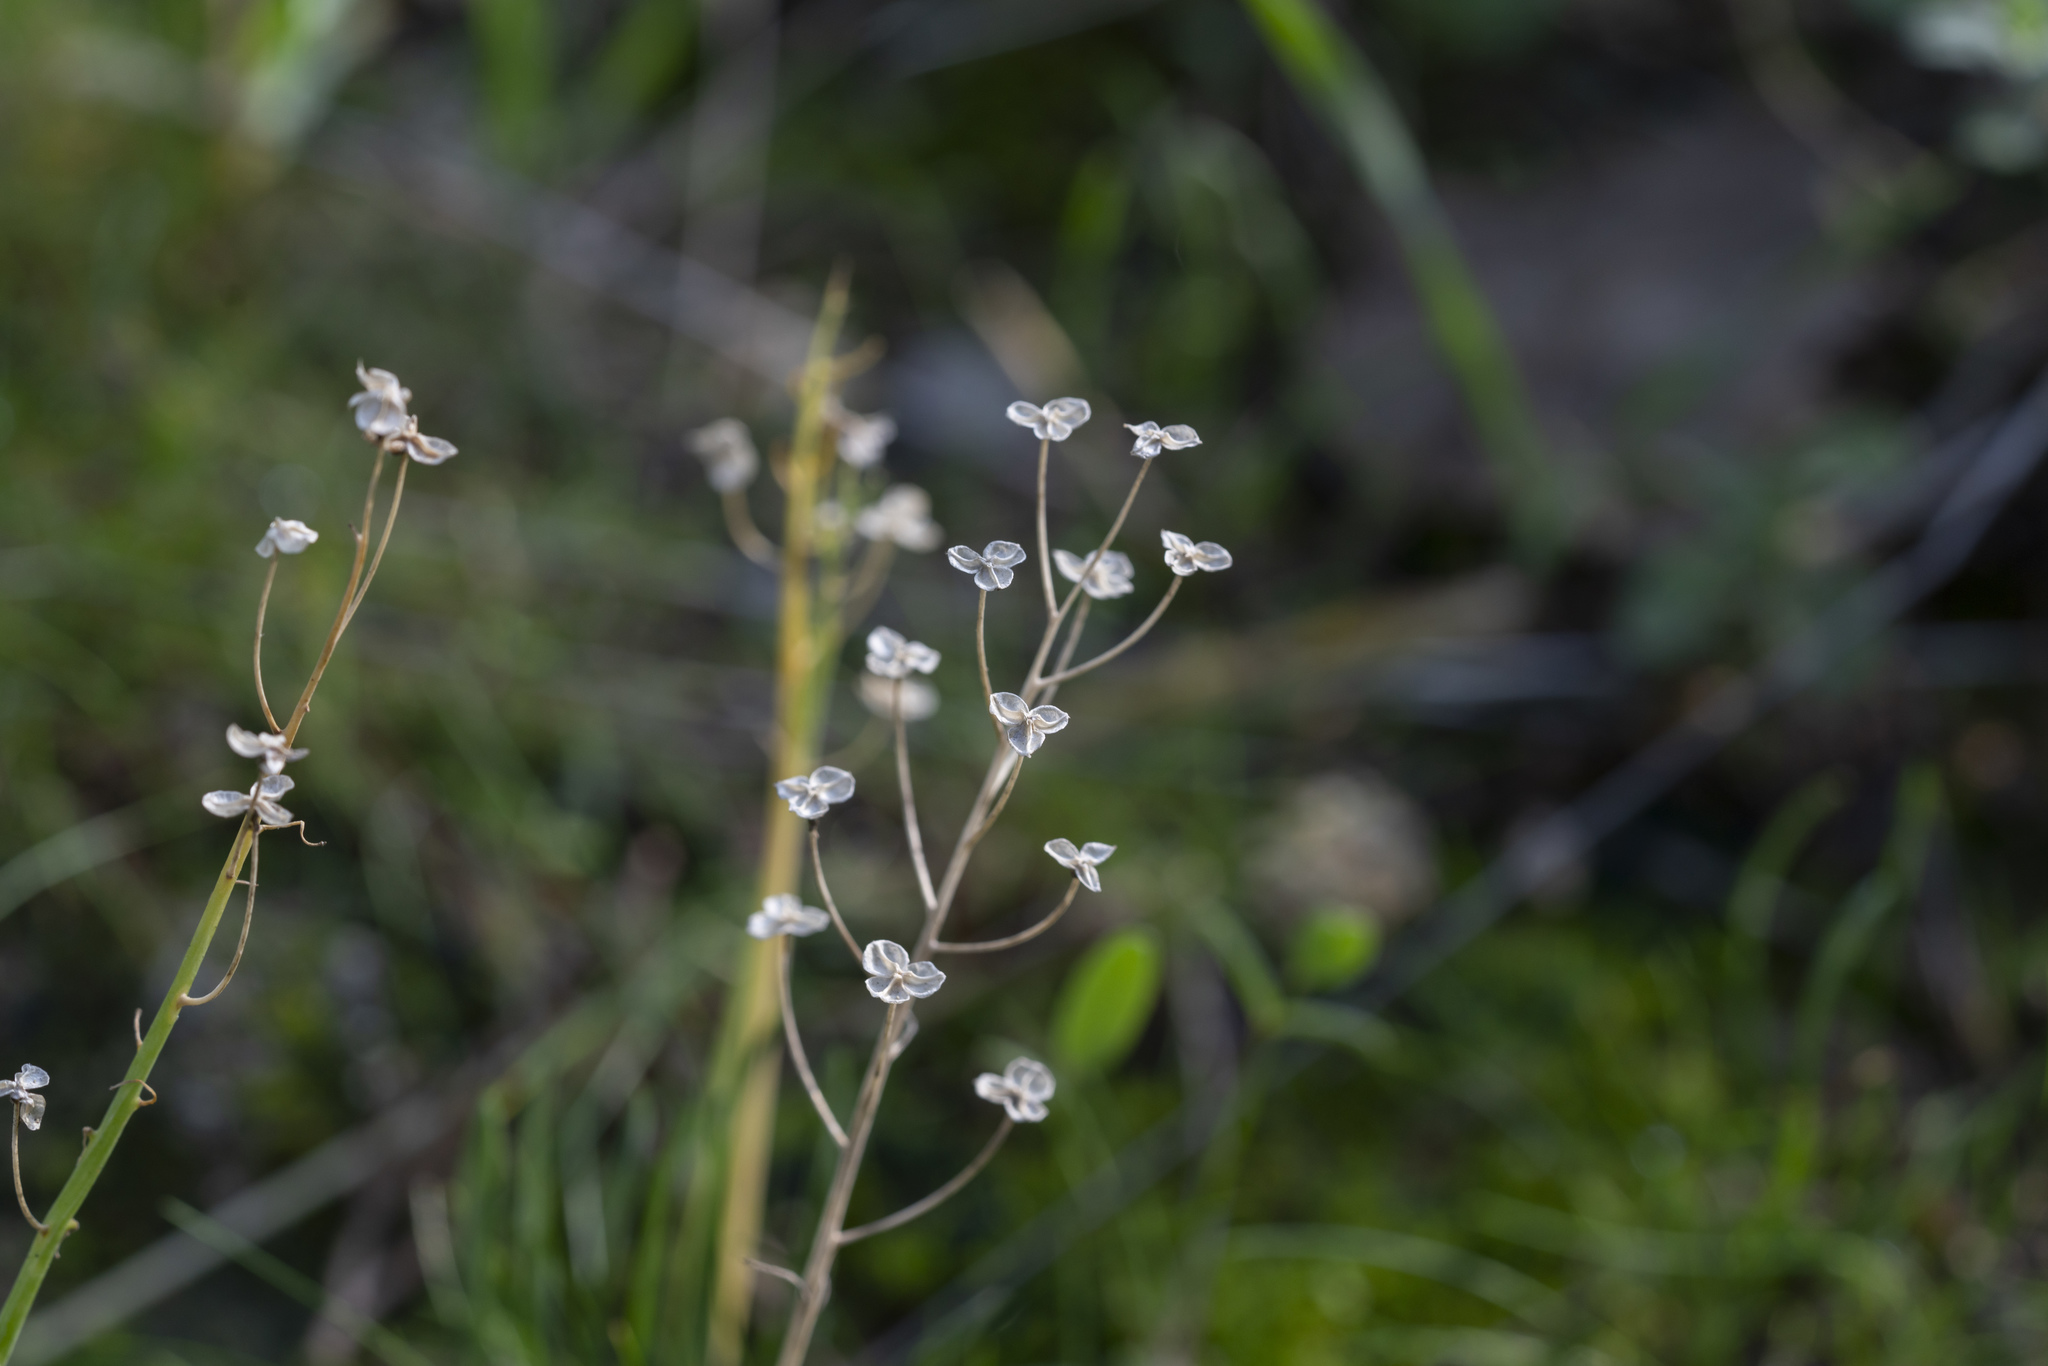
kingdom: Plantae
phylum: Tracheophyta
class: Liliopsida
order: Asparagales
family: Asparagaceae
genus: Prospero
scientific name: Prospero autumnale
